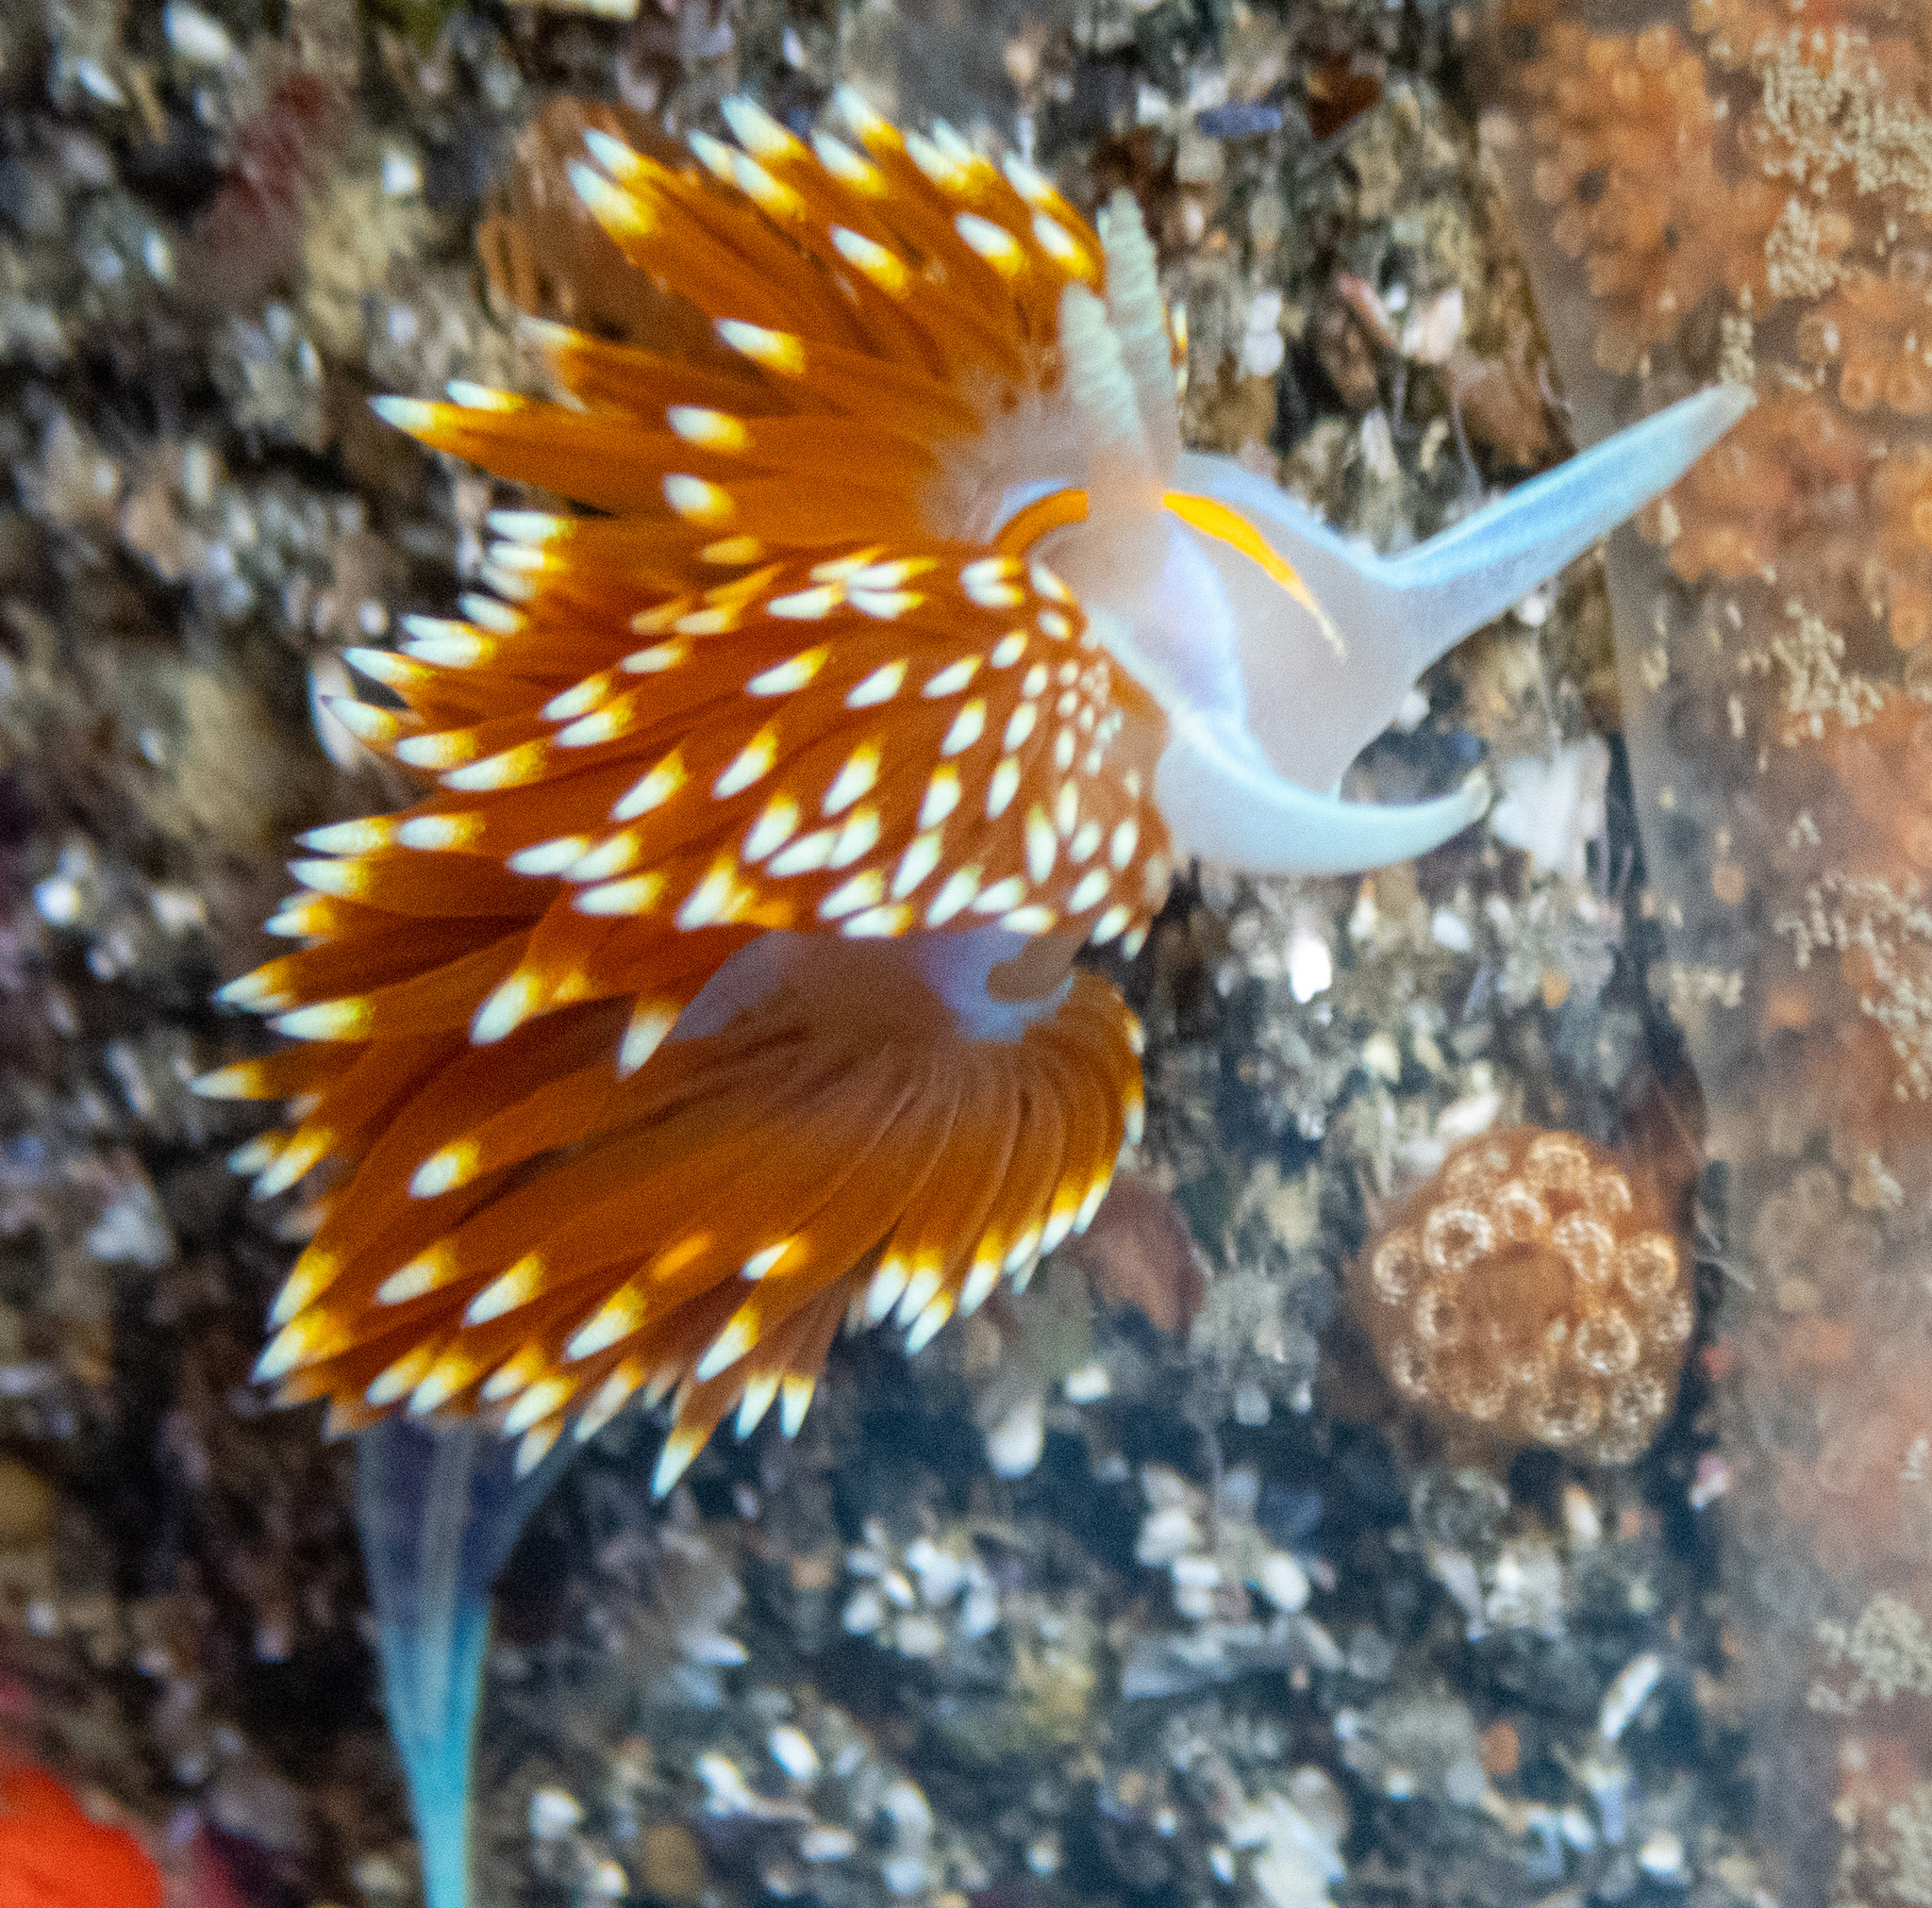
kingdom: Animalia
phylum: Mollusca
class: Gastropoda
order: Nudibranchia
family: Myrrhinidae
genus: Hermissenda
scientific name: Hermissenda opalescens
